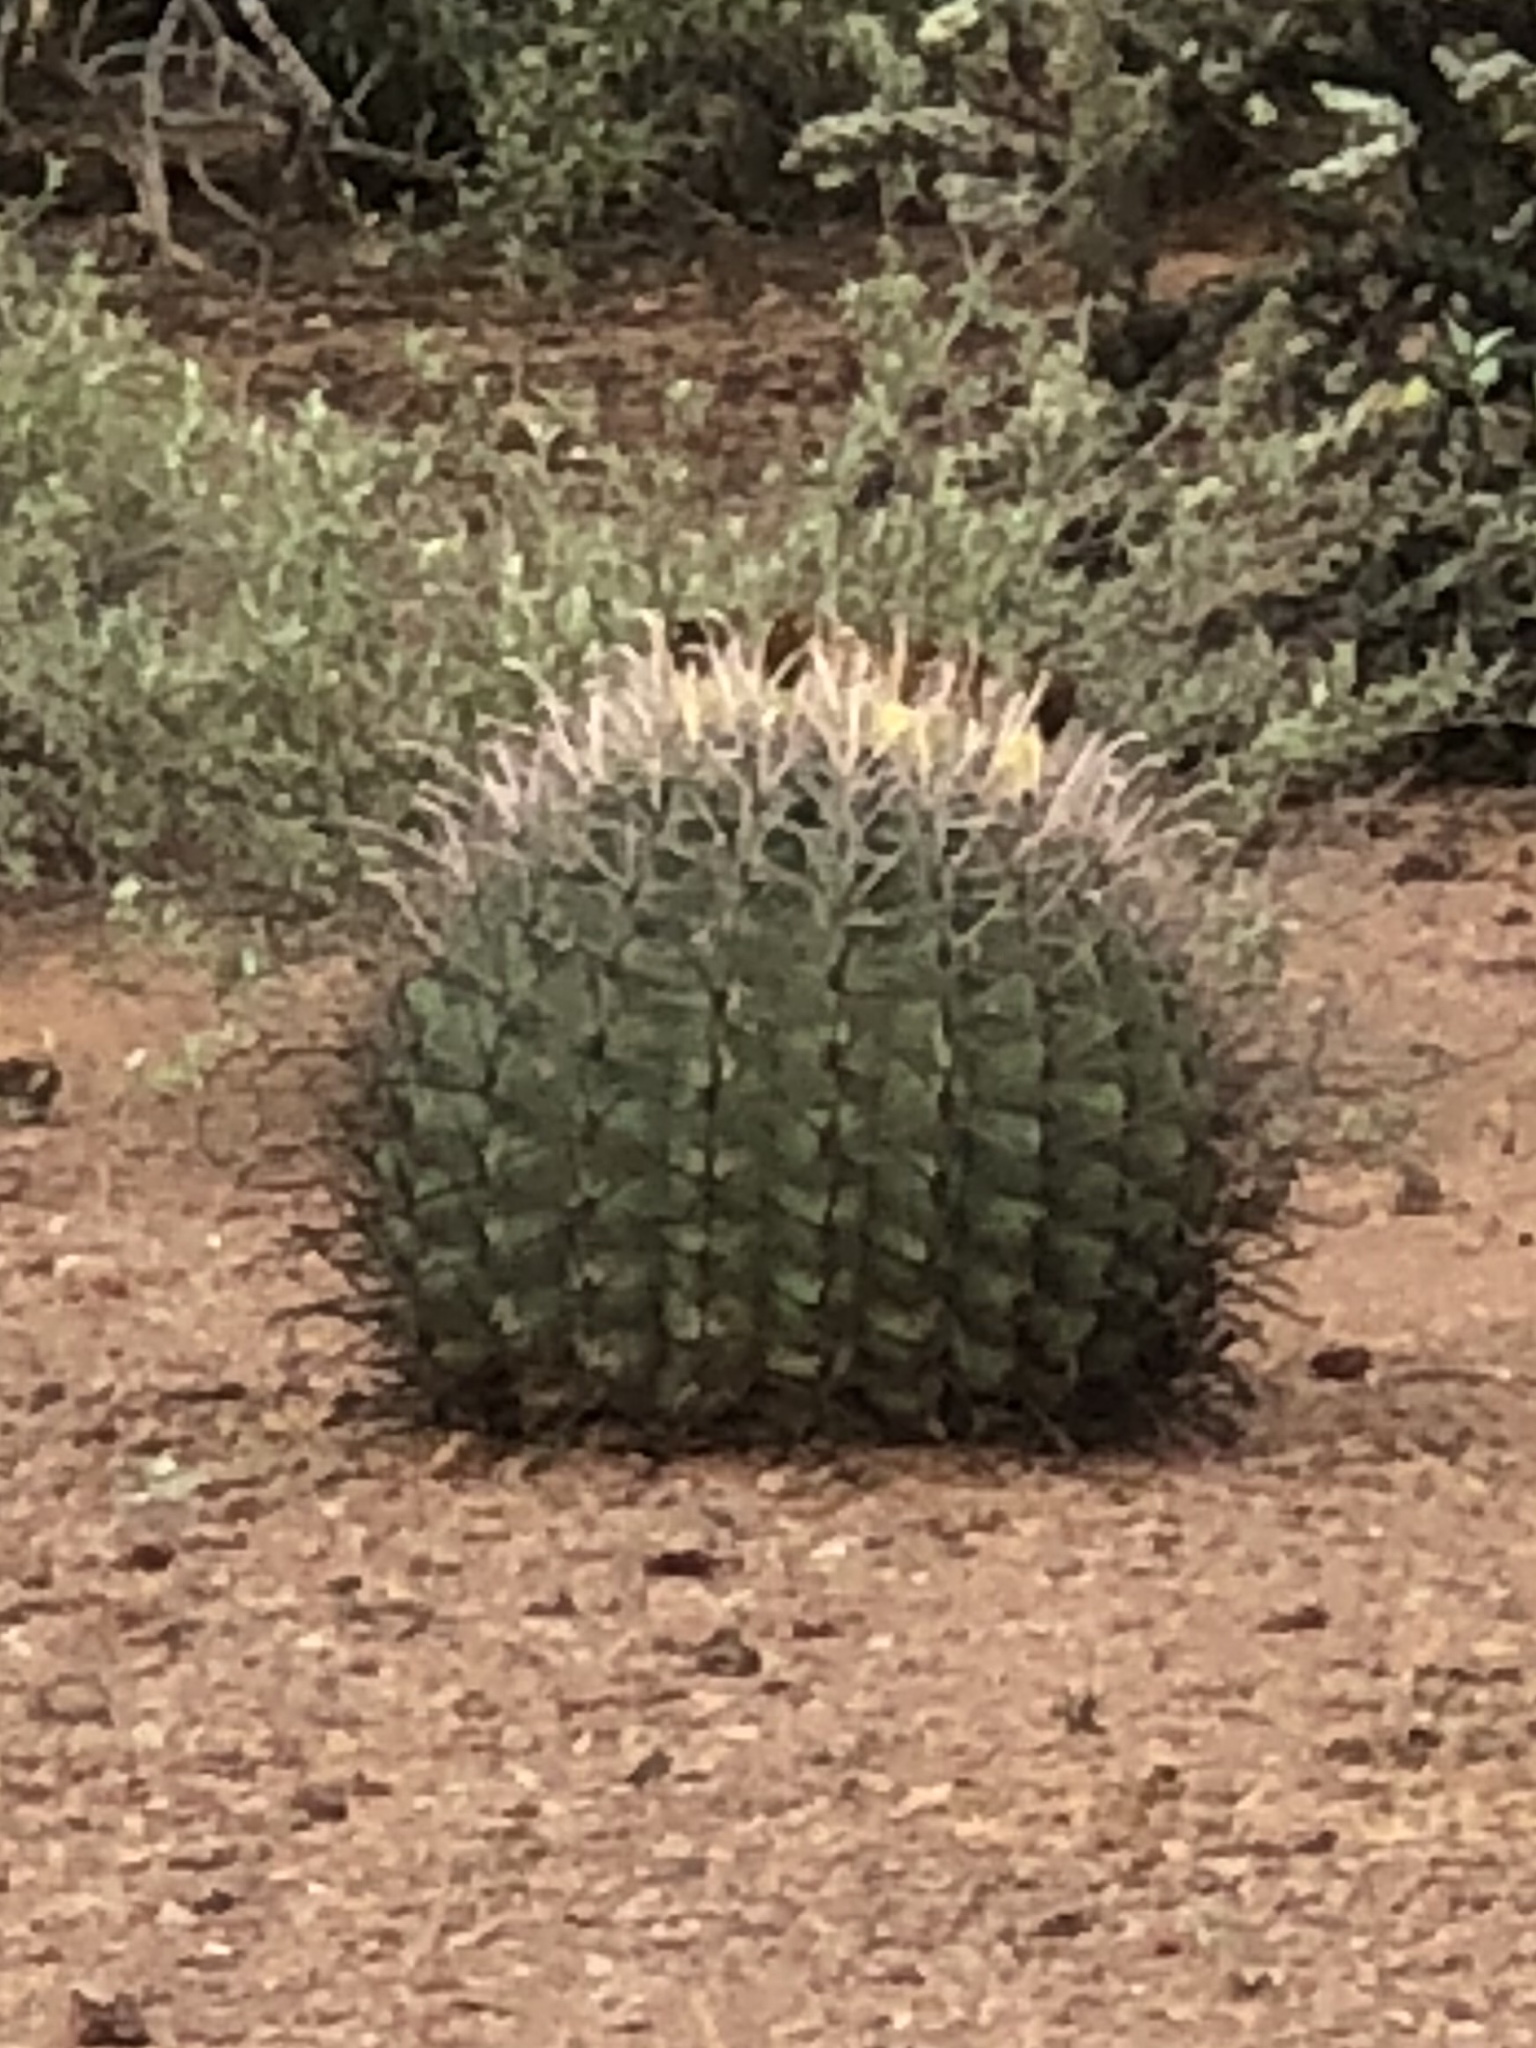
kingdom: Plantae
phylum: Tracheophyta
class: Magnoliopsida
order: Caryophyllales
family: Cactaceae
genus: Ferocactus
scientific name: Ferocactus wislizeni
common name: Candy barrel cactus
